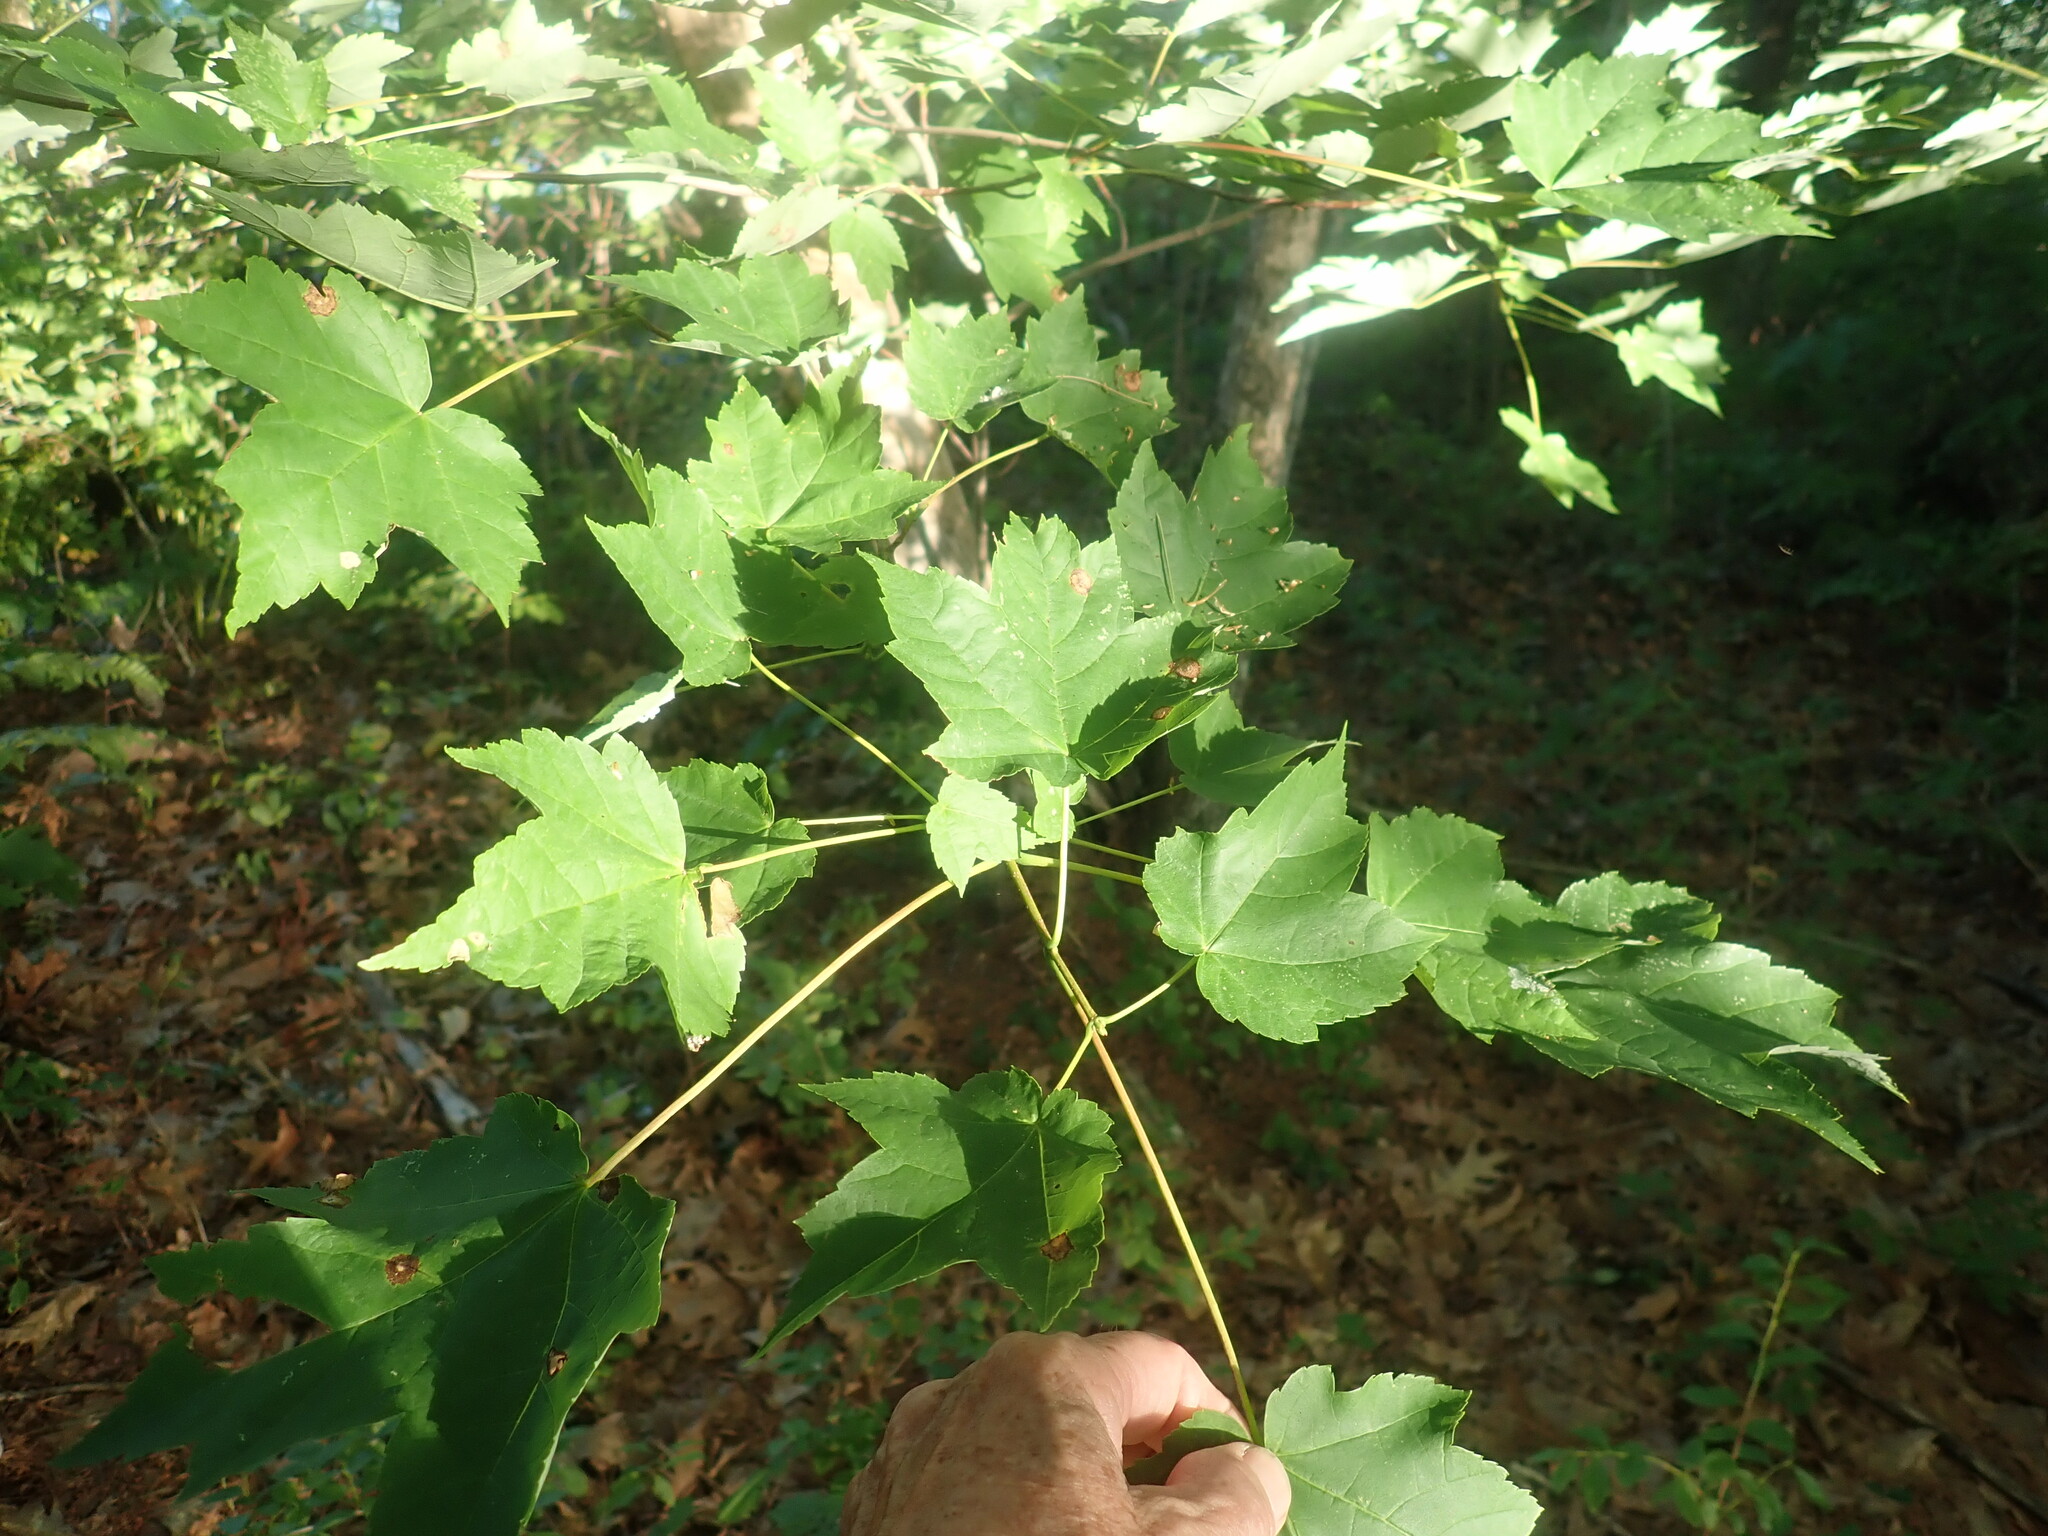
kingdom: Plantae
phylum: Tracheophyta
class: Magnoliopsida
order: Sapindales
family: Sapindaceae
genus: Acer
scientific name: Acer rubrum
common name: Red maple
